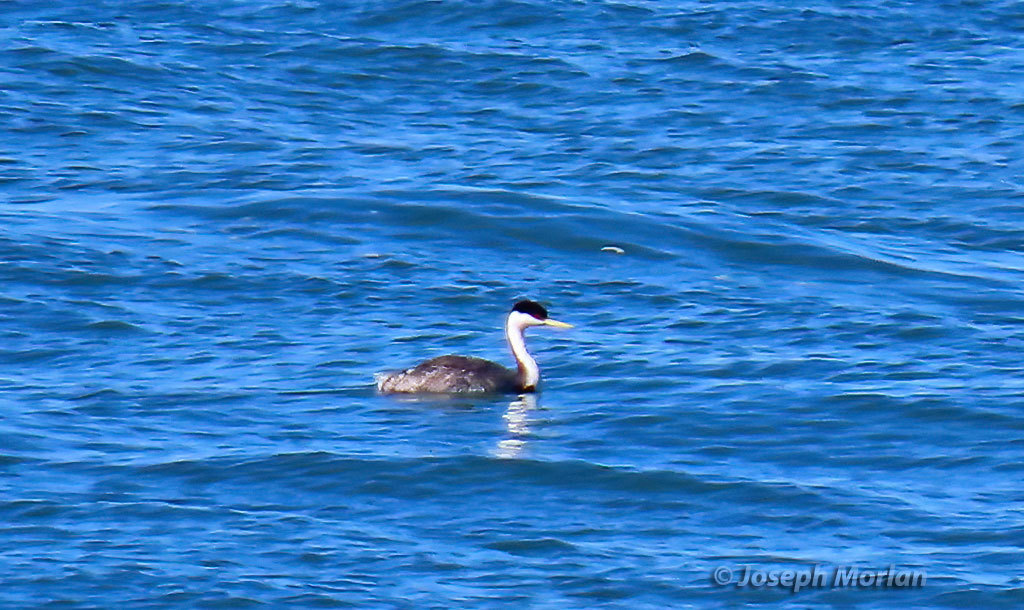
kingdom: Animalia
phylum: Chordata
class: Aves
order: Podicipediformes
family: Podicipedidae
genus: Aechmophorus
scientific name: Aechmophorus occidentalis
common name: Western grebe
